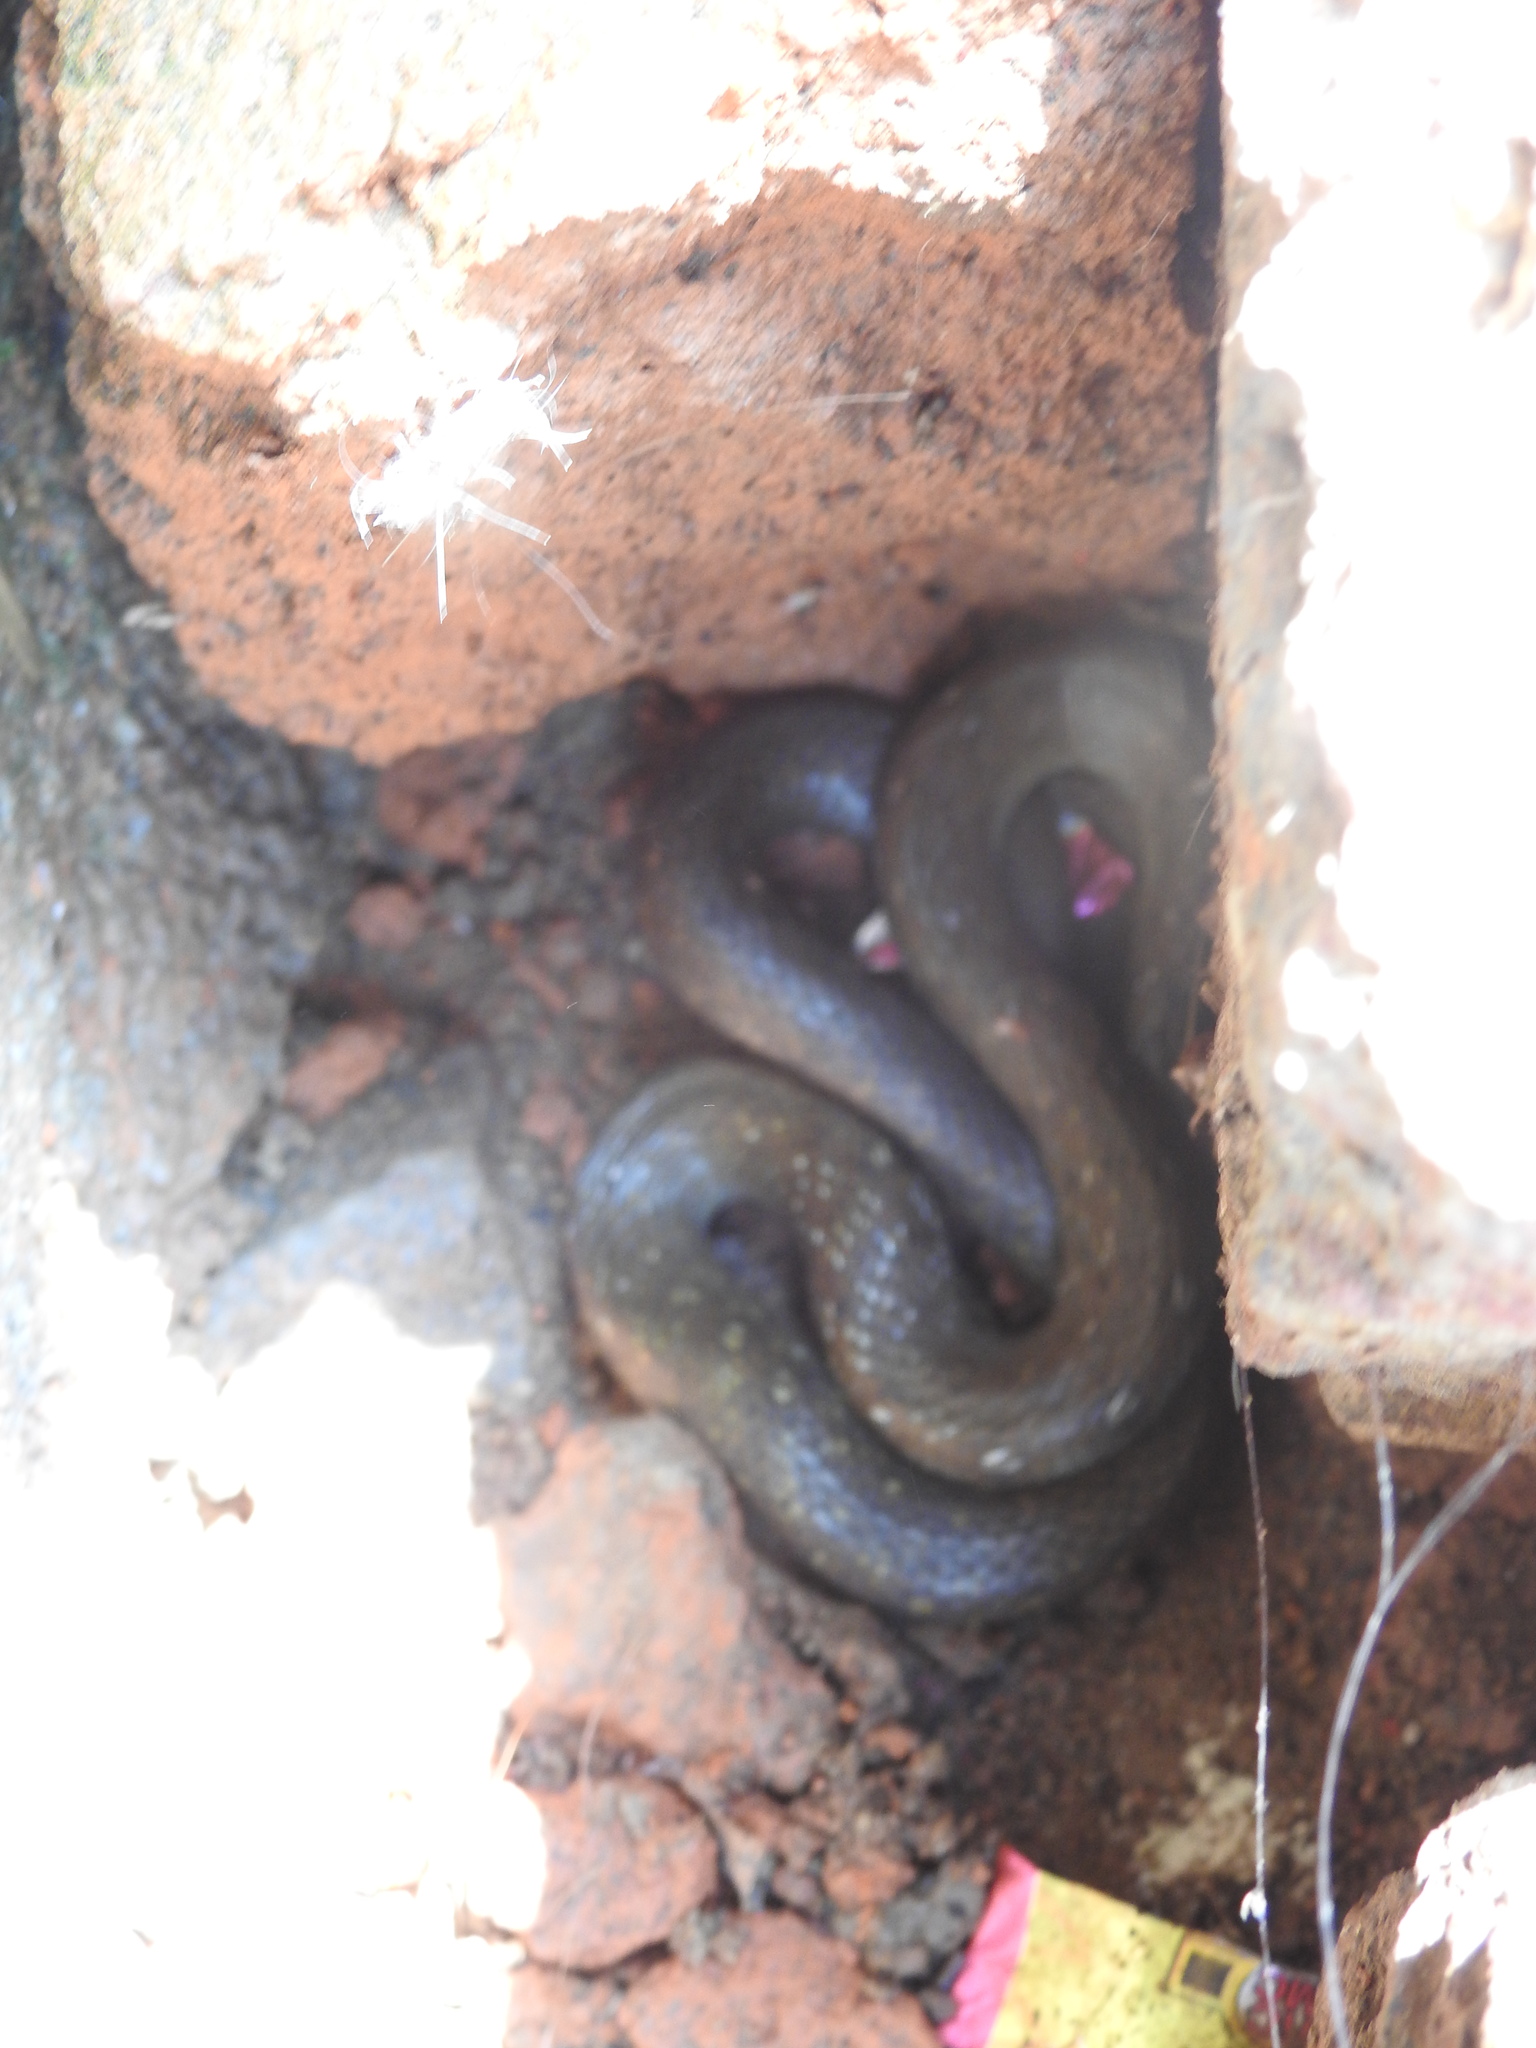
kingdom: Animalia
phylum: Chordata
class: Squamata
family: Colubridae
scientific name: Colubridae
